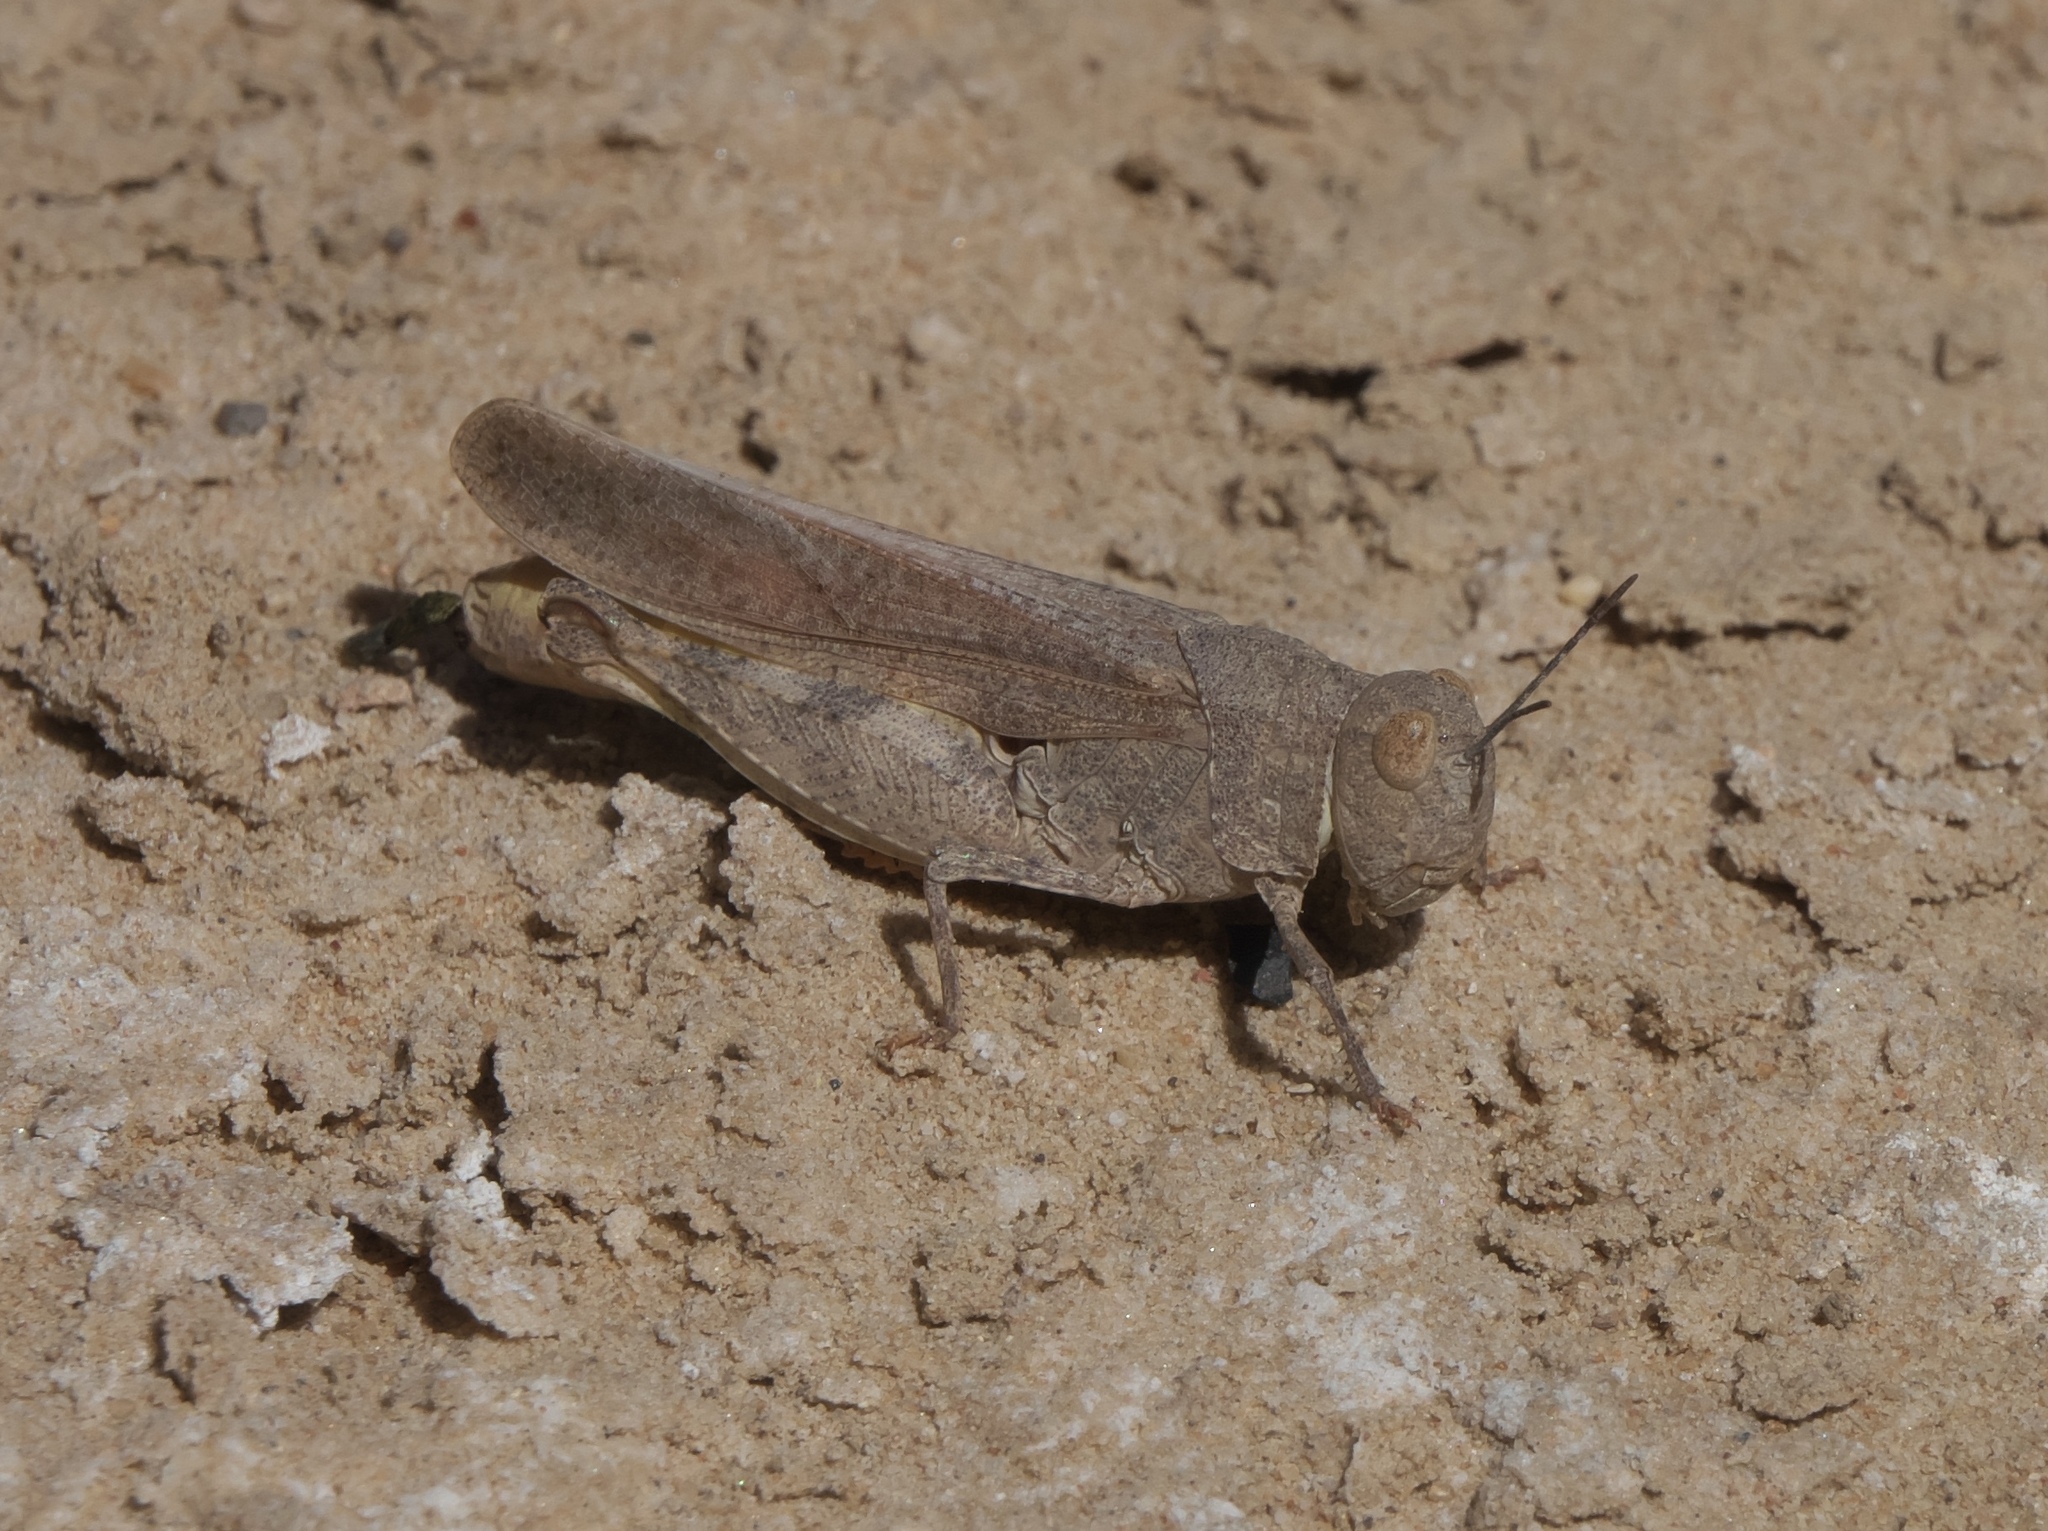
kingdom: Animalia
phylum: Arthropoda
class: Insecta
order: Orthoptera
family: Acrididae
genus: Arphia
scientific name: Arphia conspersa
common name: Speckle-winged rangeland grasshopper
